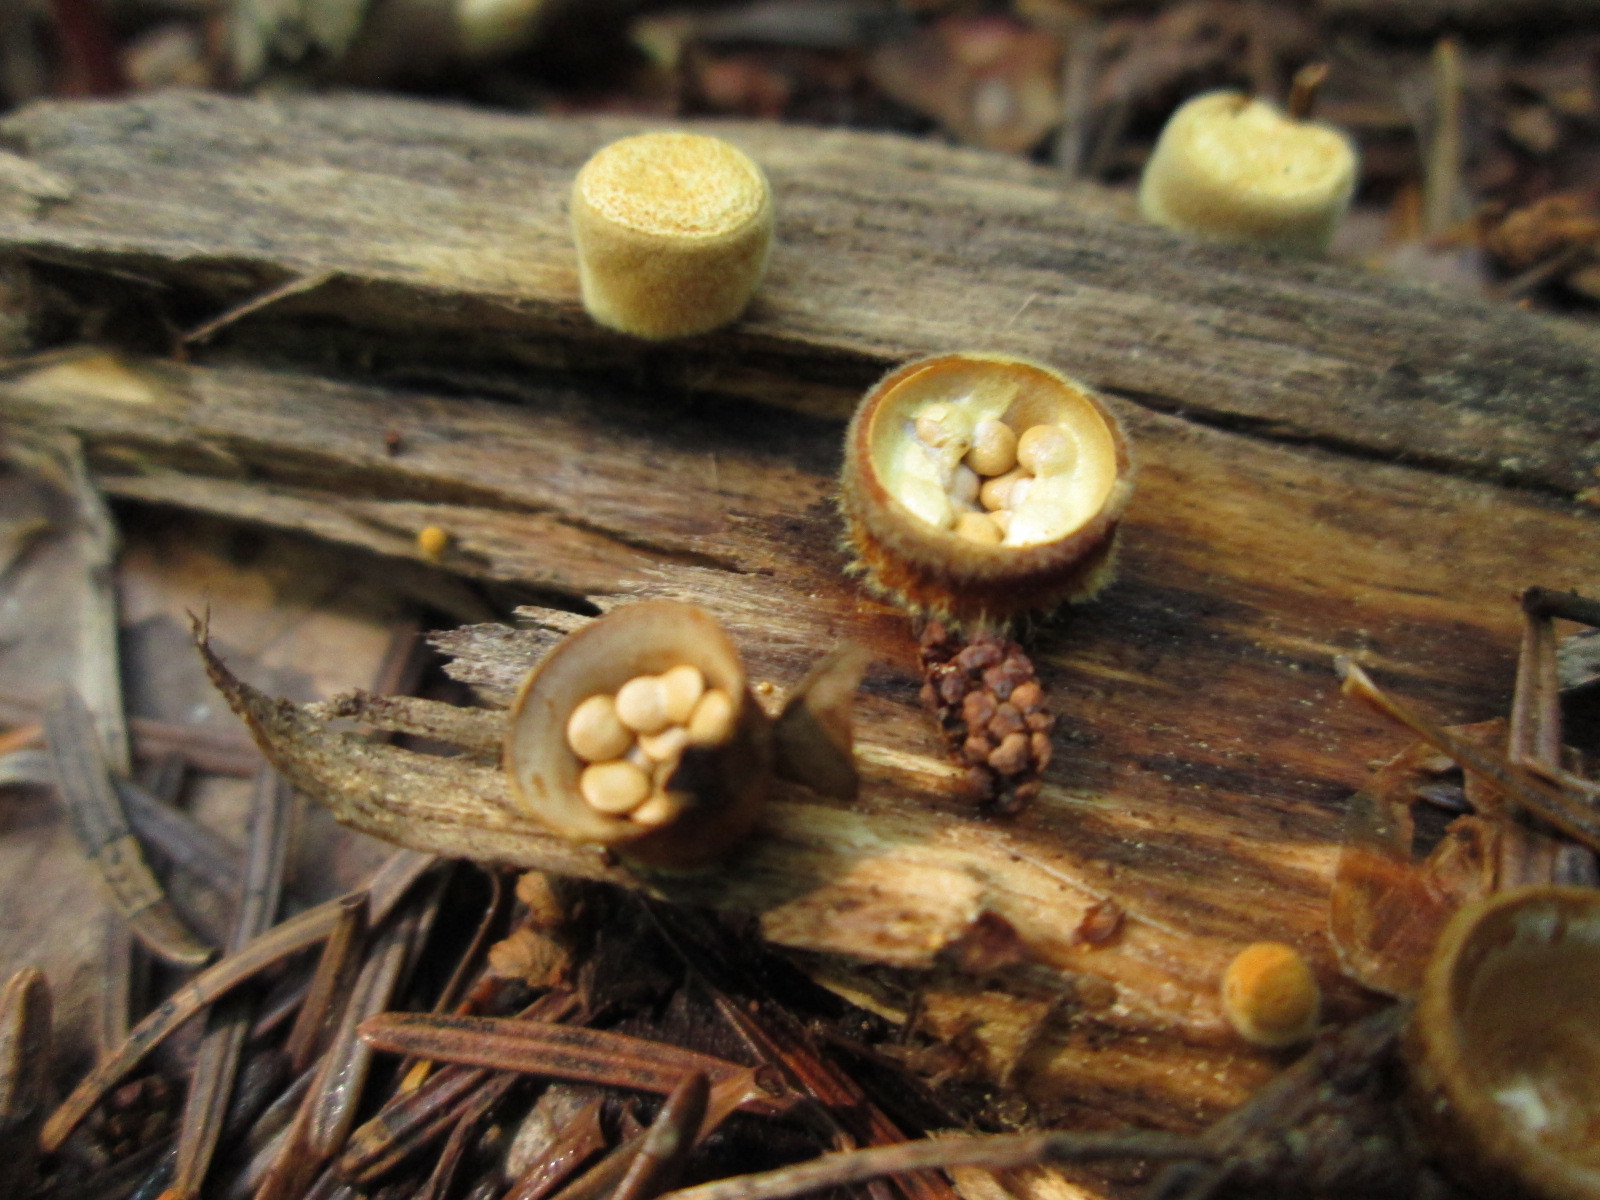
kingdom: Fungi
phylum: Basidiomycota
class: Agaricomycetes
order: Agaricales
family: Nidulariaceae
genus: Crucibulum
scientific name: Crucibulum laeve
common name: Common bird's nest
